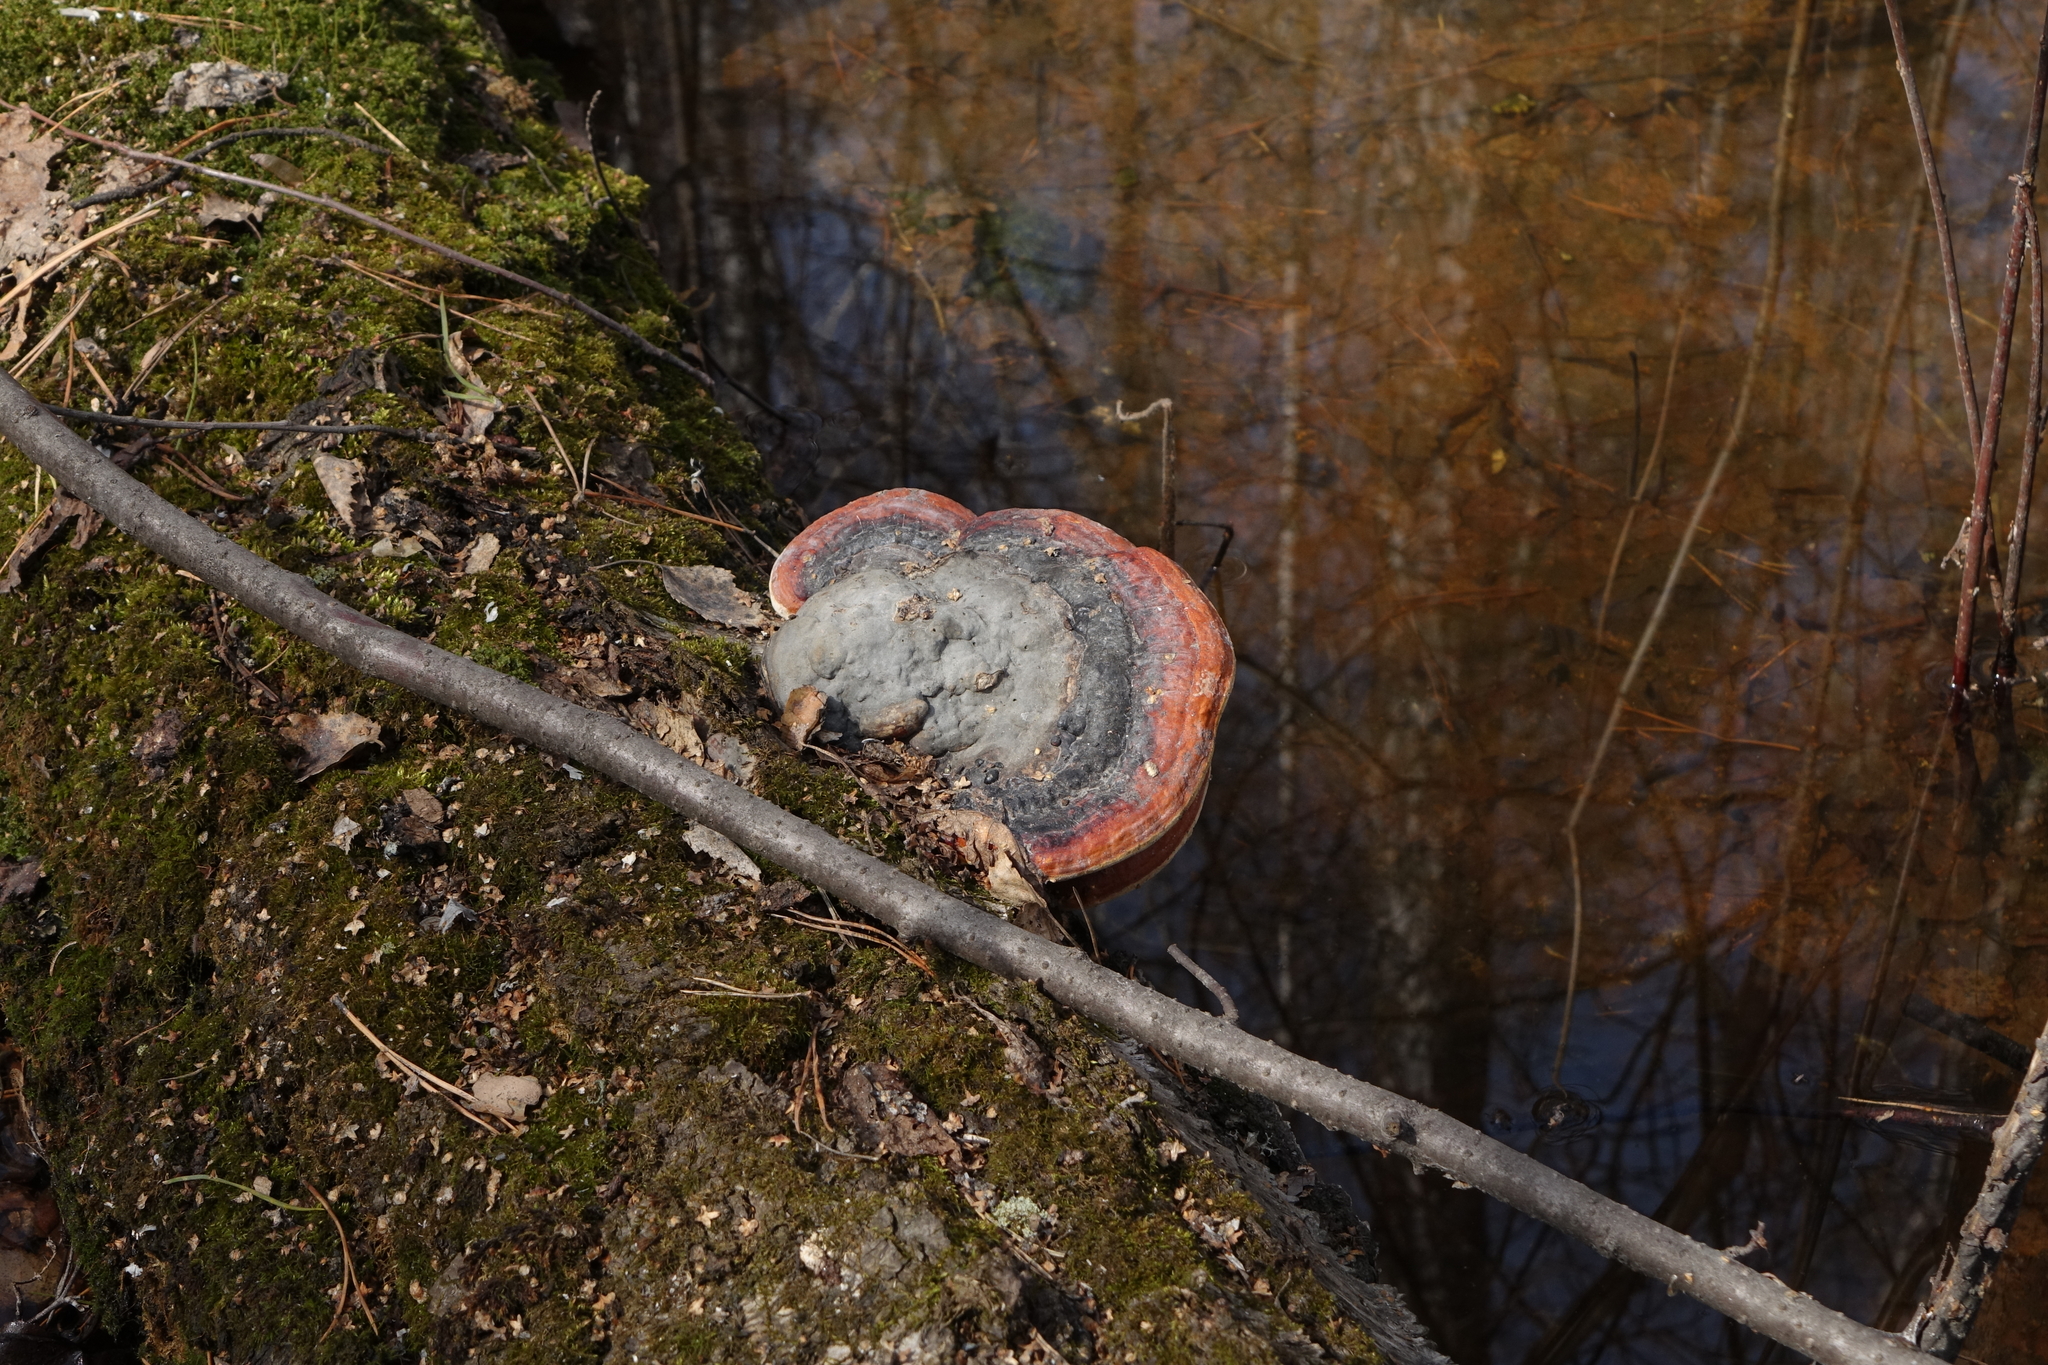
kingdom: Fungi
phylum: Basidiomycota
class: Agaricomycetes
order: Polyporales
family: Fomitopsidaceae
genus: Fomitopsis
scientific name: Fomitopsis pinicola
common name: Red-belted bracket
